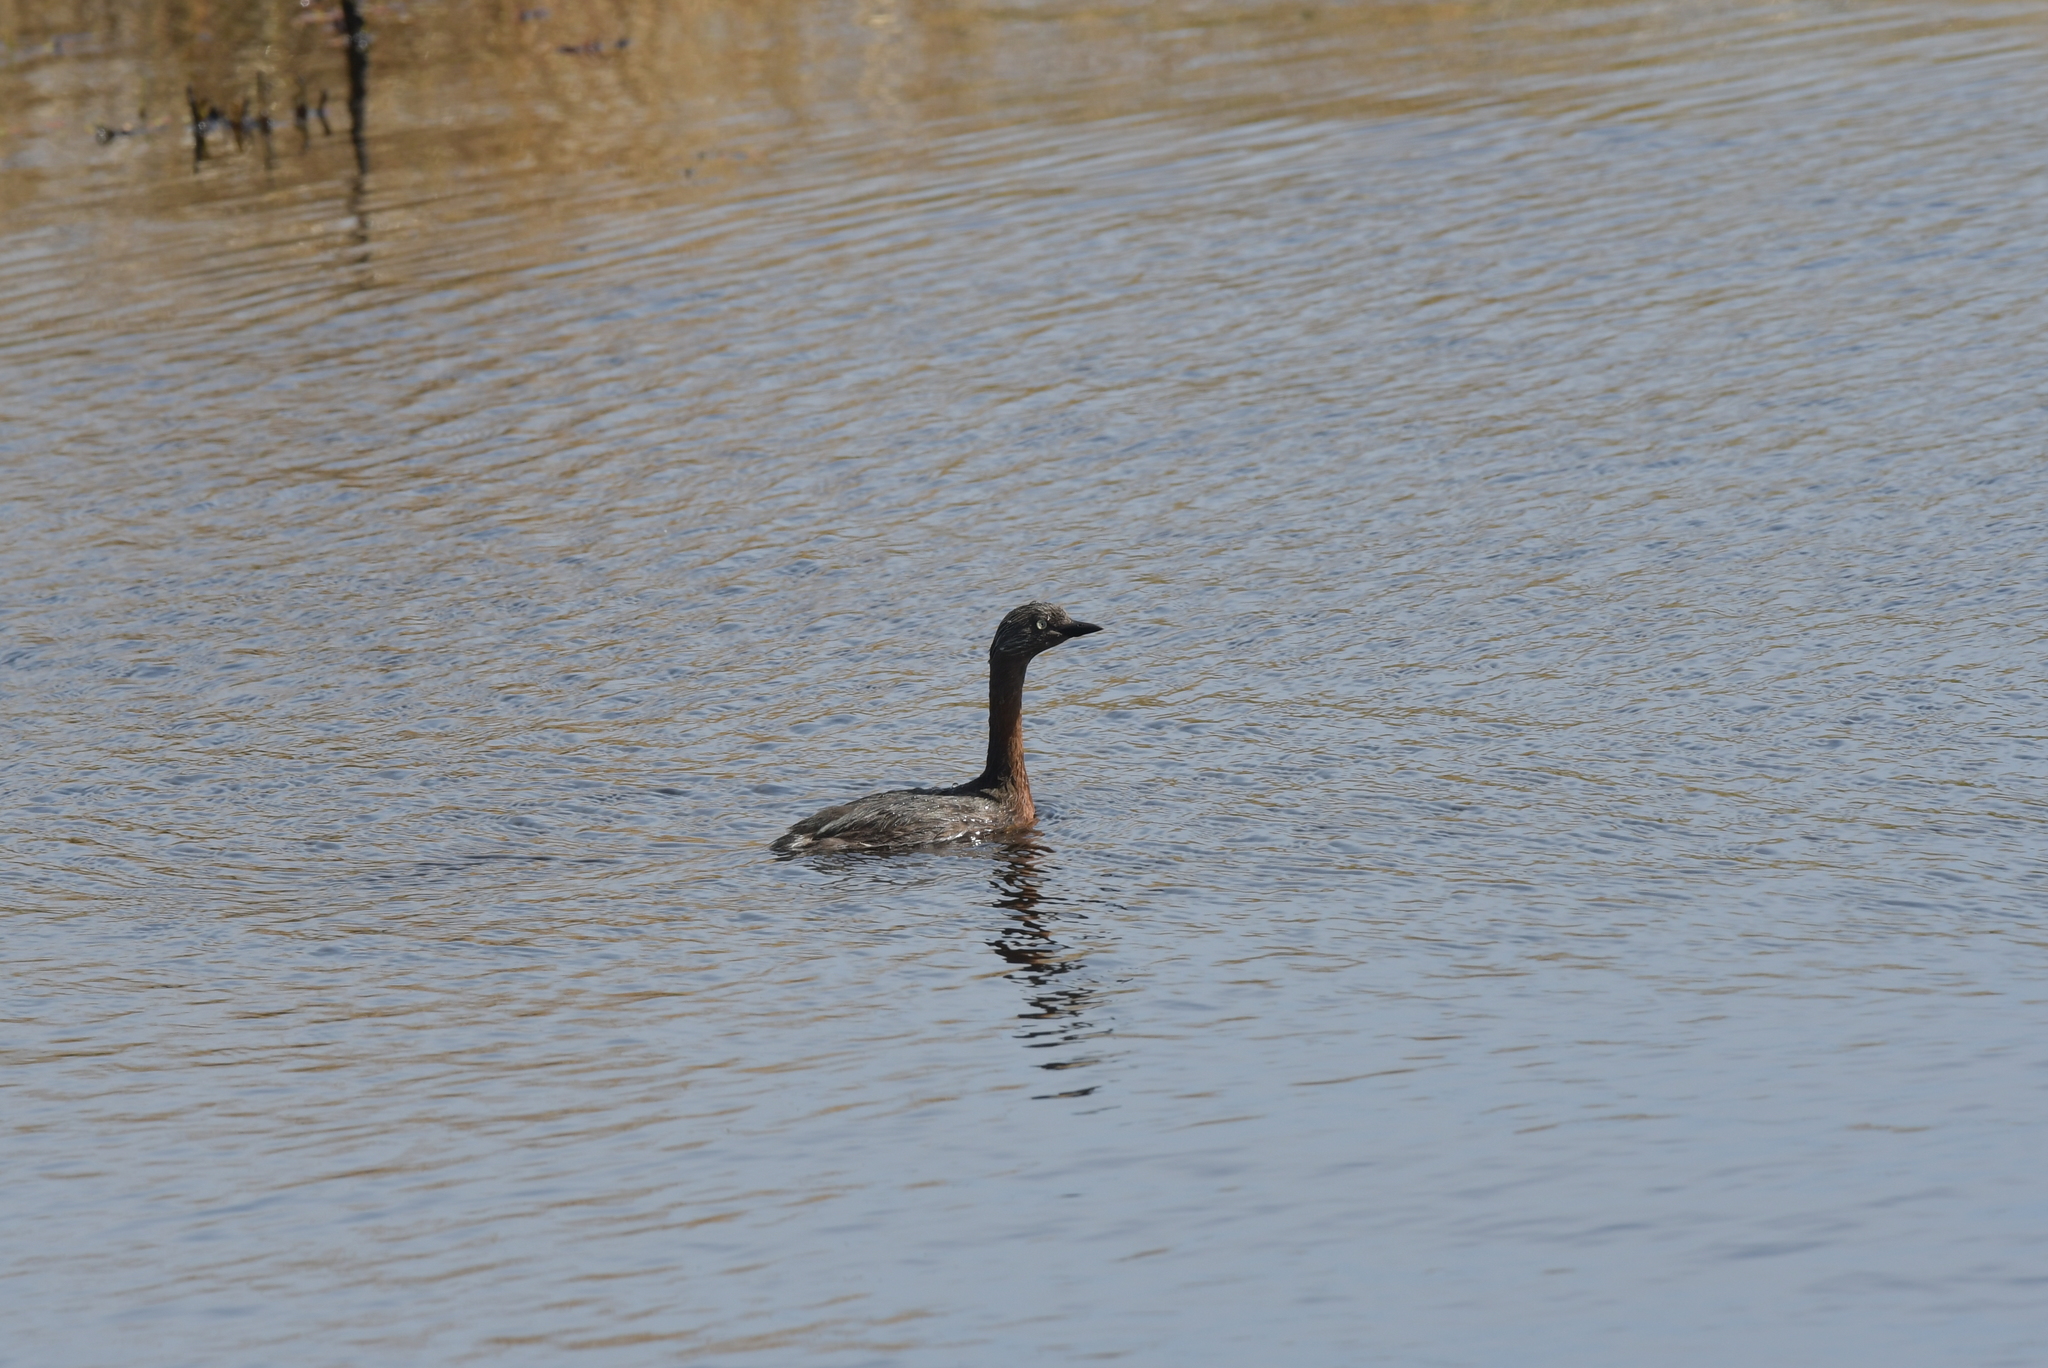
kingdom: Animalia
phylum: Chordata
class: Aves
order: Podicipediformes
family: Podicipedidae
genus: Poliocephalus
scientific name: Poliocephalus rufopectus
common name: New zealand grebe
